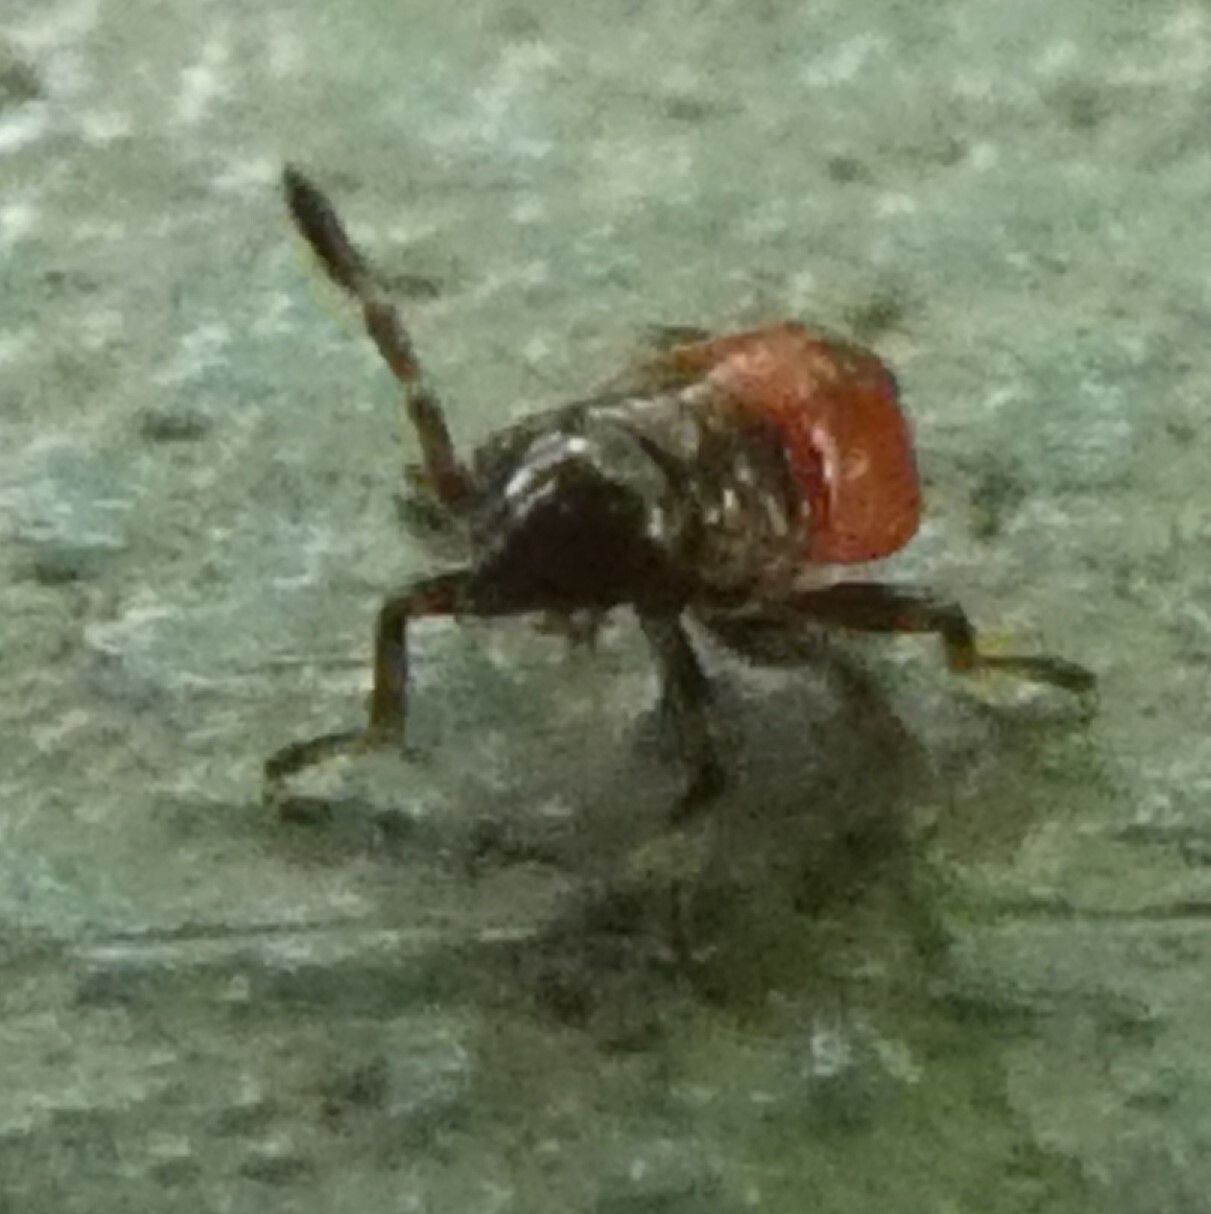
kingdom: Animalia
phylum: Arthropoda
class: Insecta
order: Hemiptera
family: Acanthosomatidae
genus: Acanthosoma
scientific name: Acanthosoma haemorrhoidale
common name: Hawthorn shieldbug
